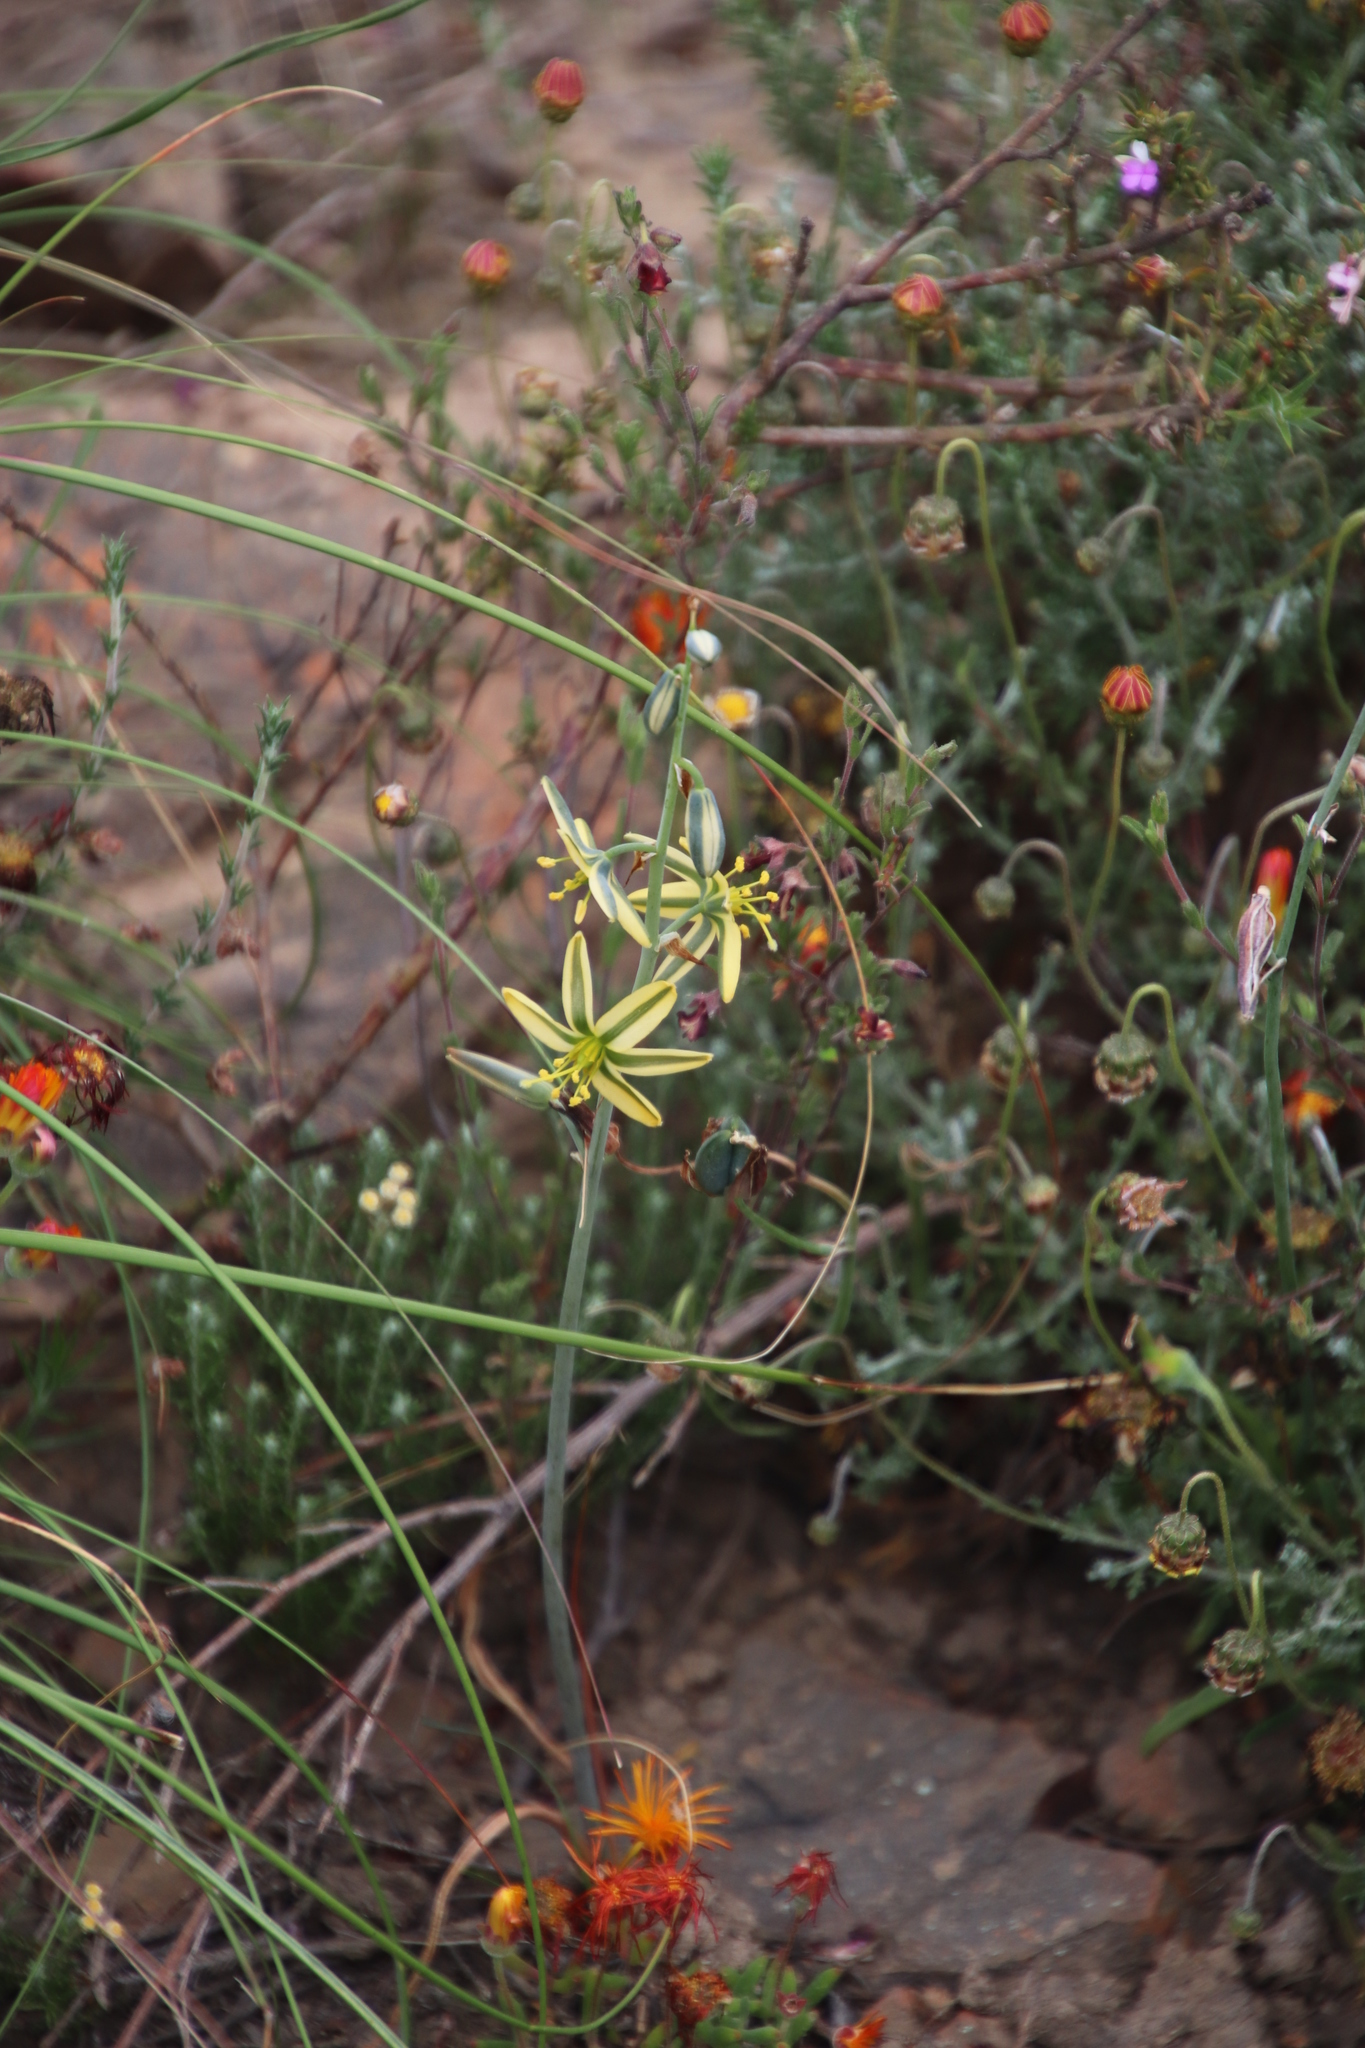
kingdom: Plantae
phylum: Tracheophyta
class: Liliopsida
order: Asparagales
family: Asparagaceae
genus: Albuca
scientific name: Albuca suaveolens
